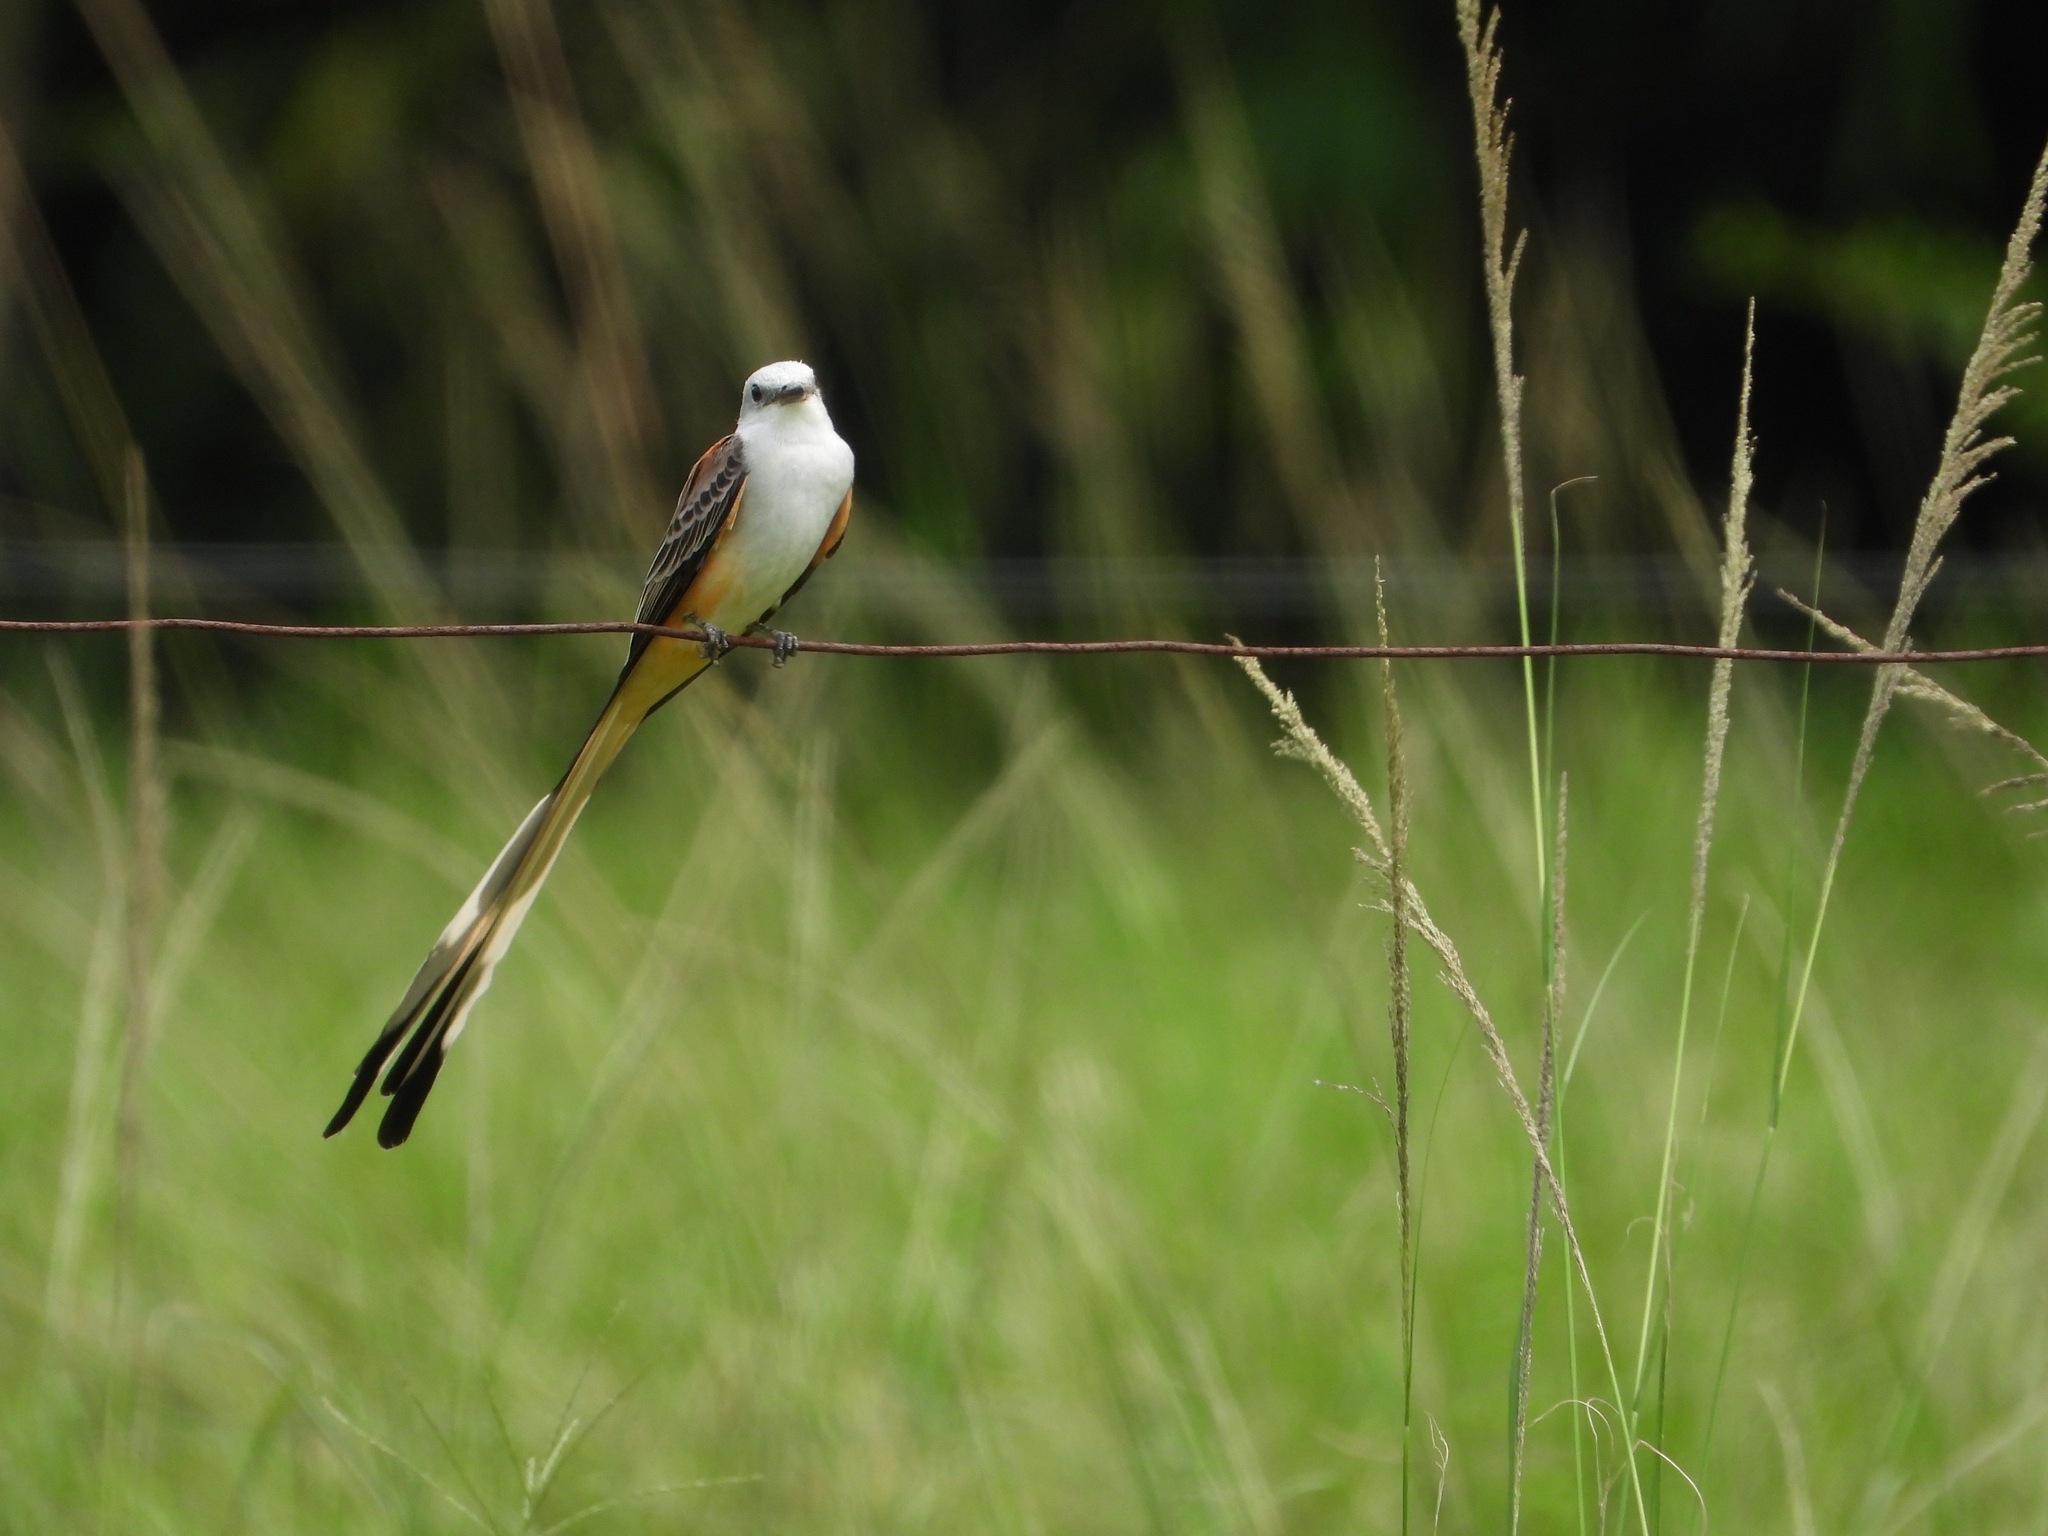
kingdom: Animalia
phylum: Chordata
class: Aves
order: Passeriformes
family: Tyrannidae
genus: Tyrannus
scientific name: Tyrannus forficatus
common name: Scissor-tailed flycatcher
